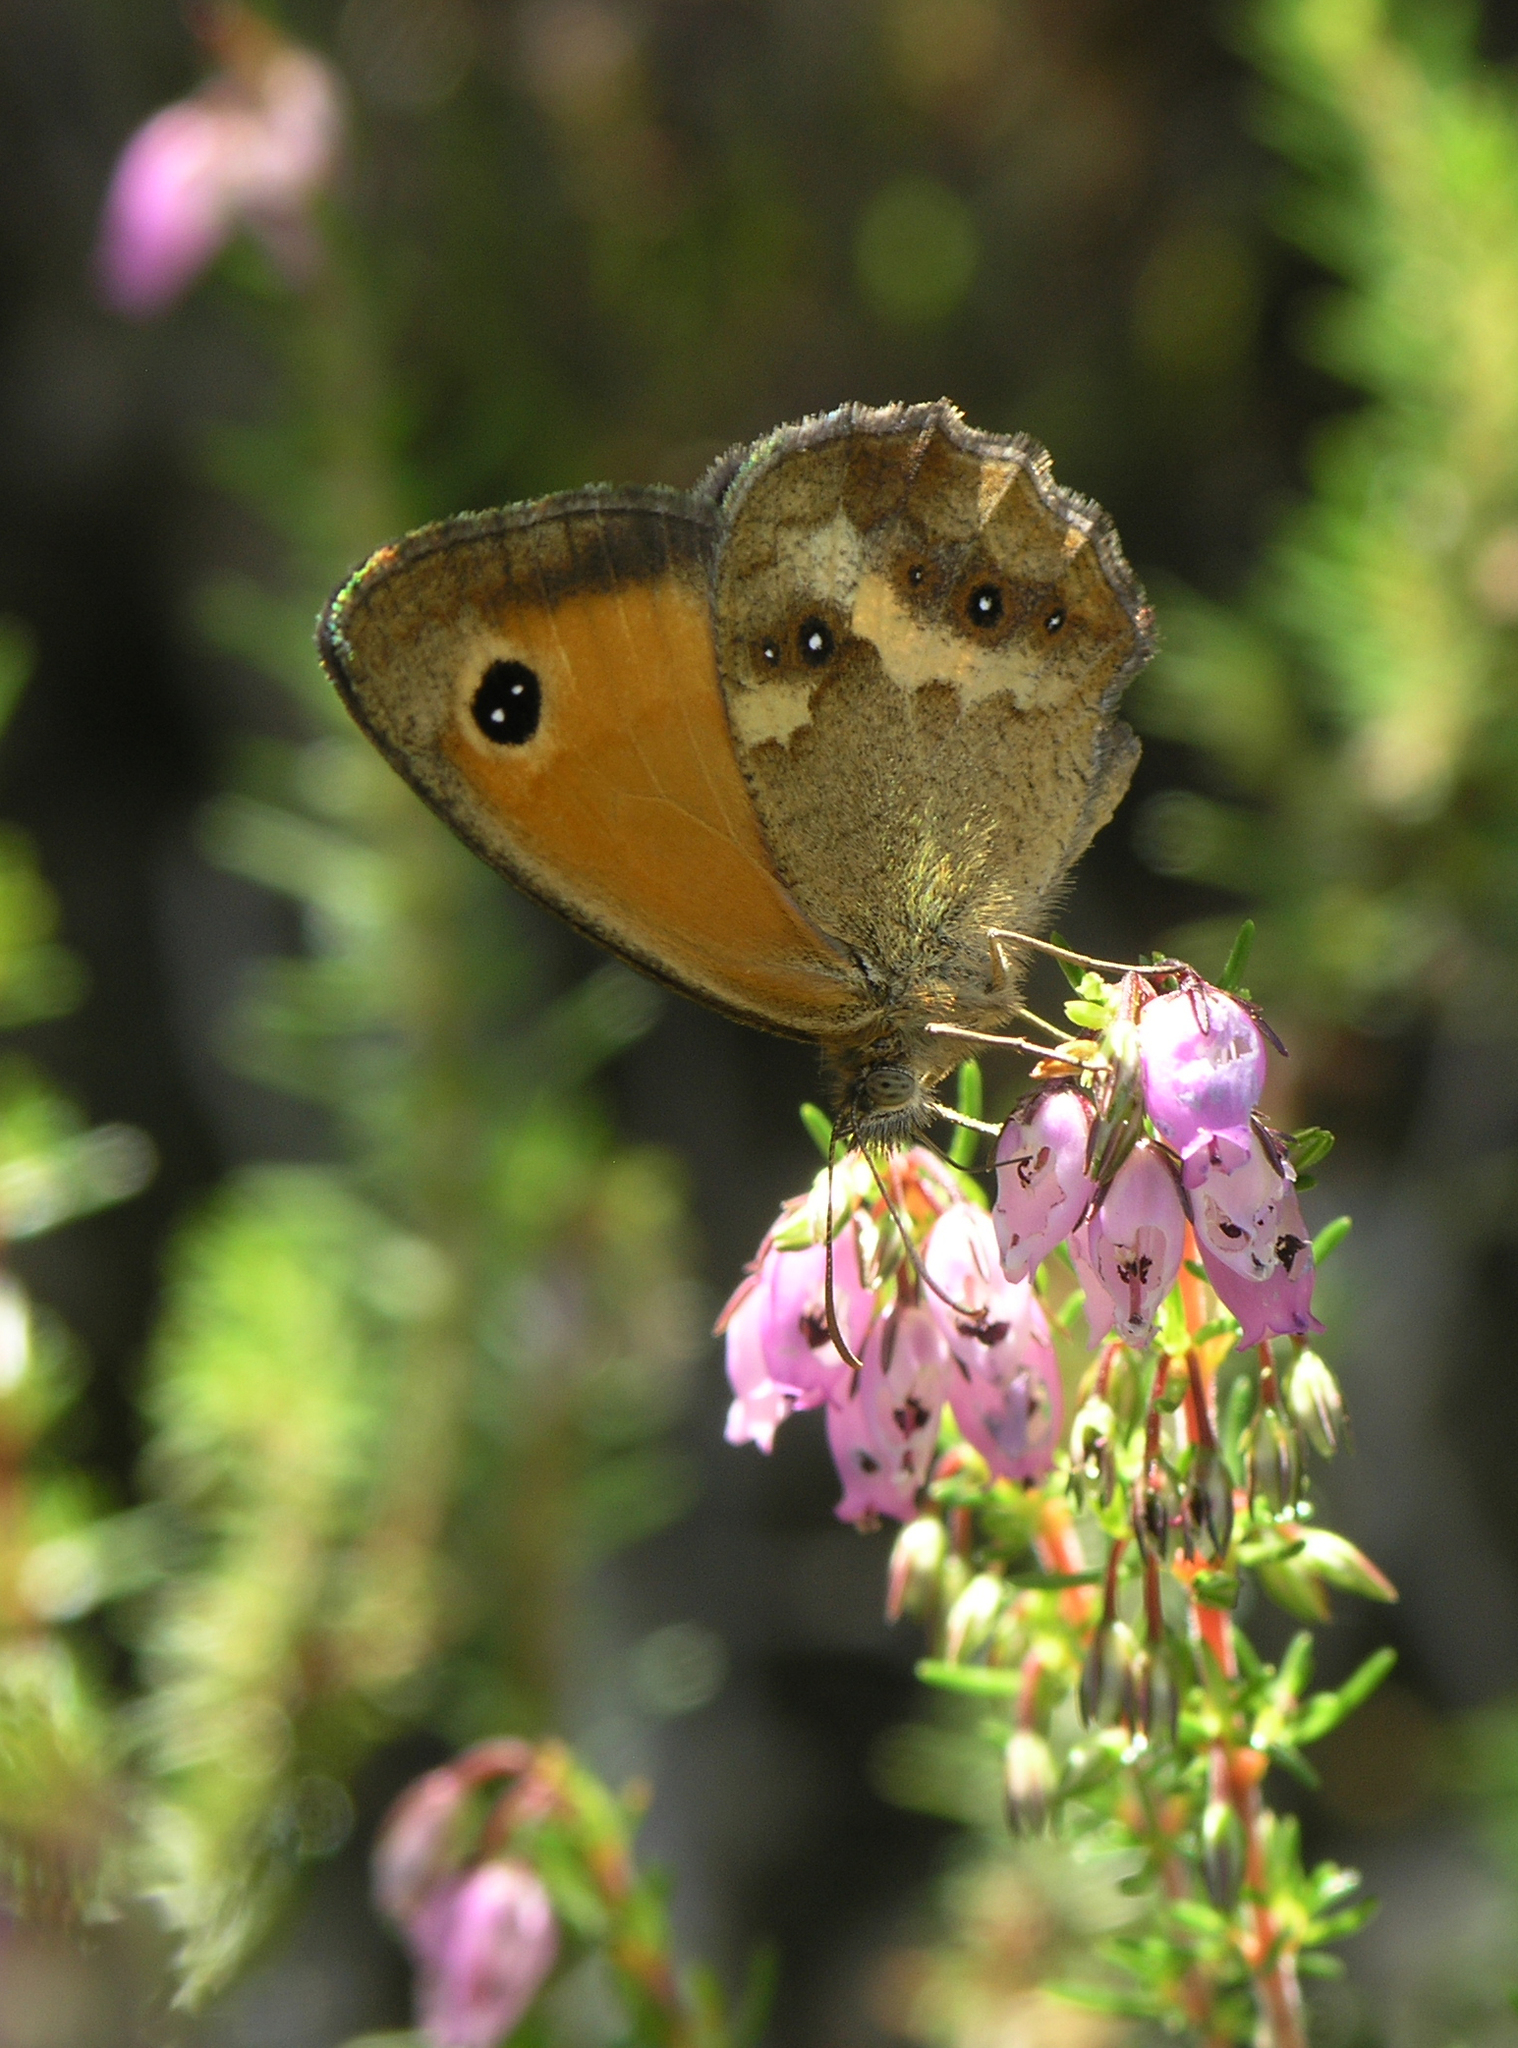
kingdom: Animalia
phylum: Arthropoda
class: Insecta
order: Lepidoptera
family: Nymphalidae
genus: Pyronia
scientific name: Pyronia tithonus
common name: Gatekeeper
